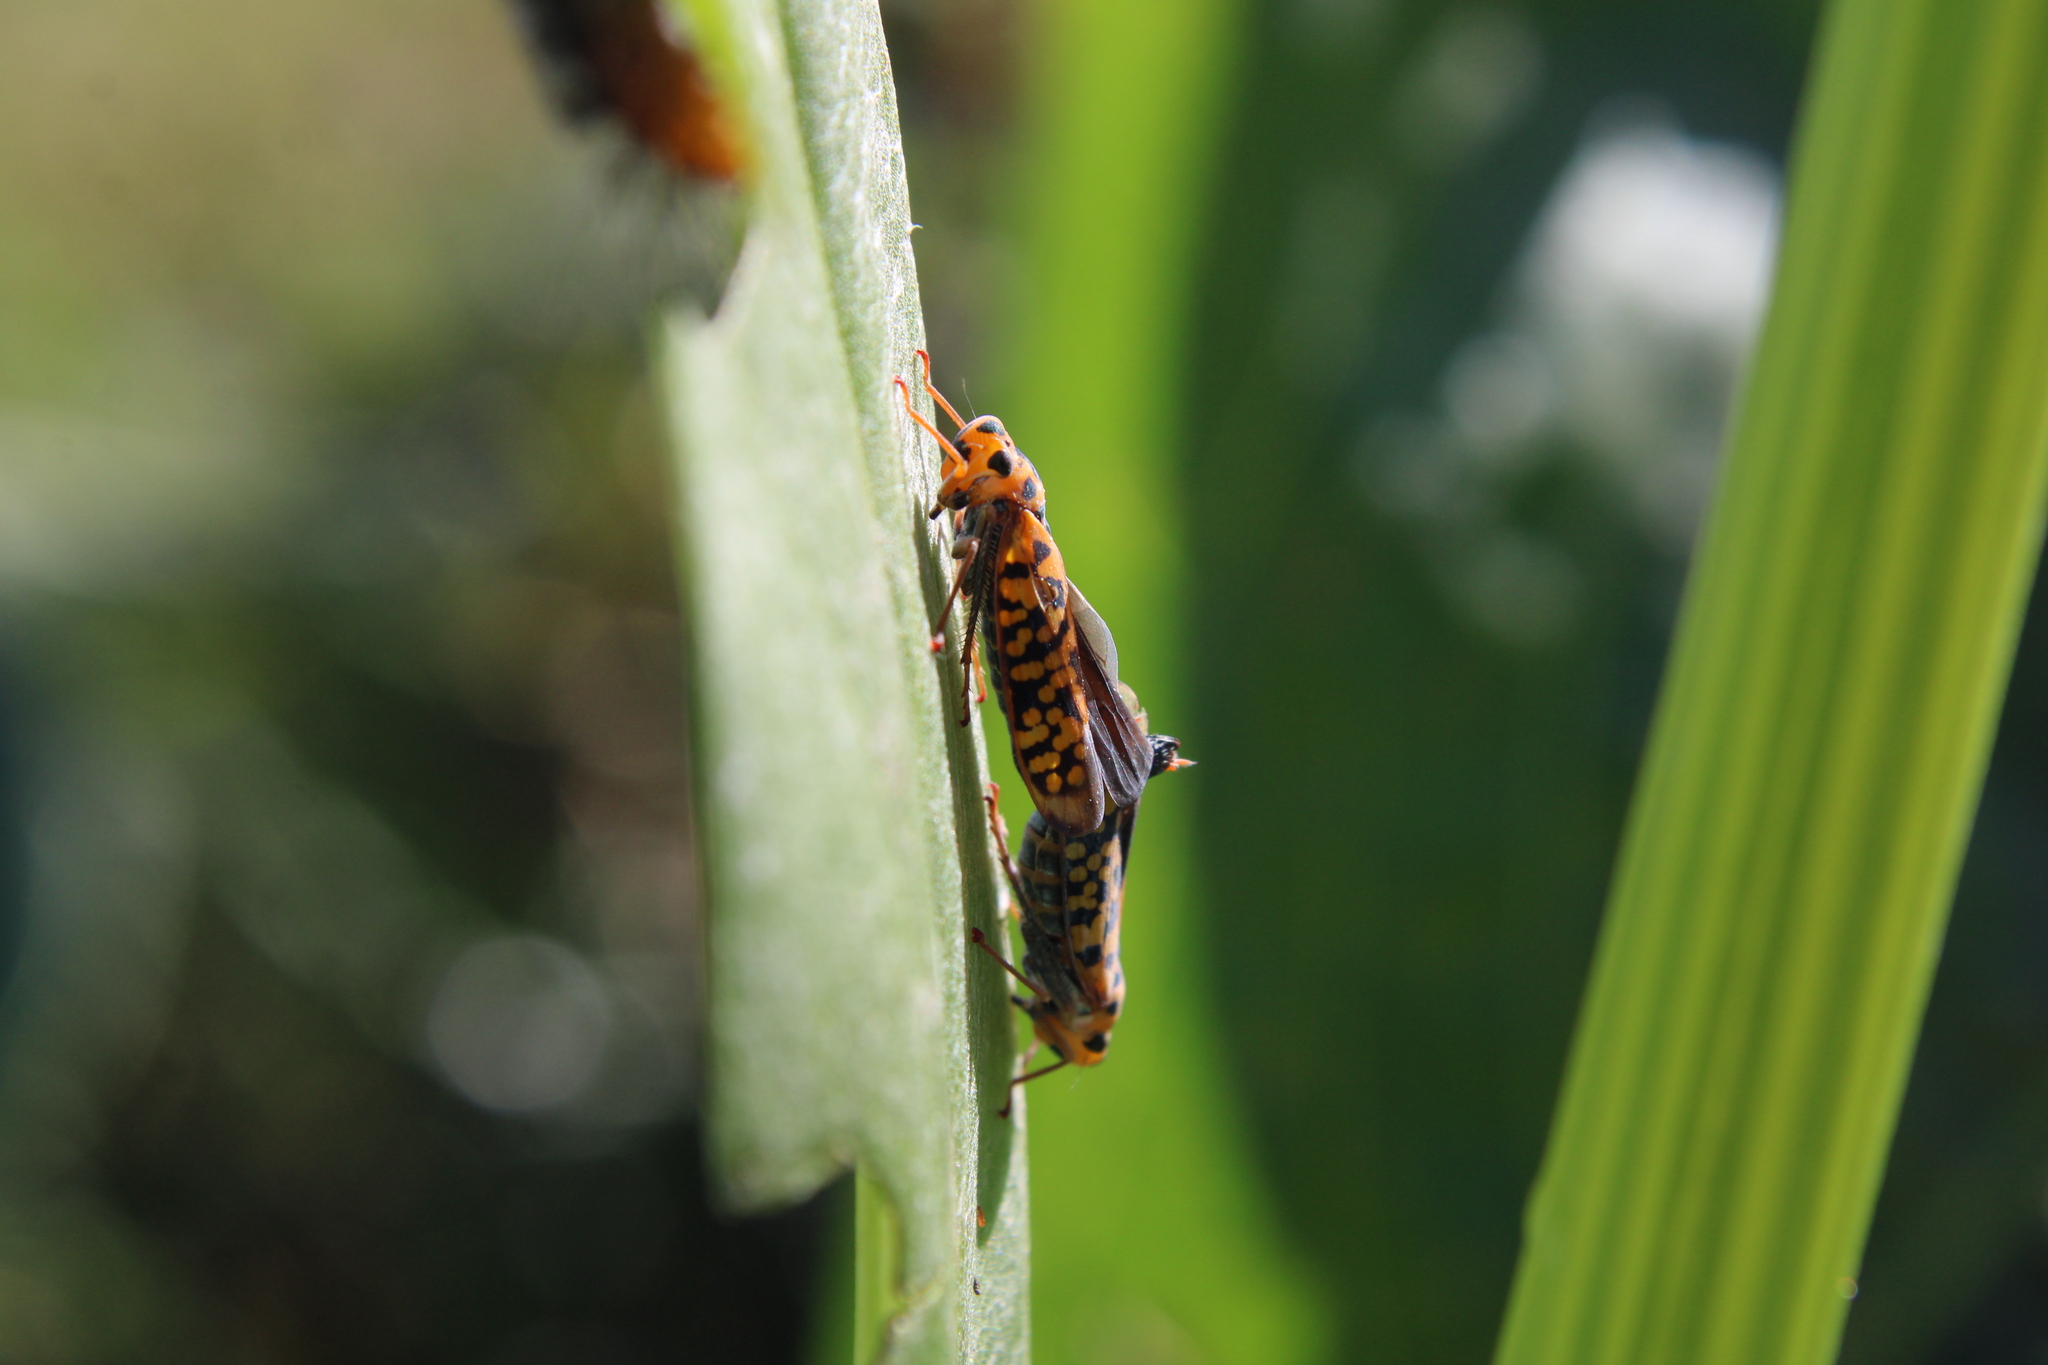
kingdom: Animalia
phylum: Arthropoda
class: Insecta
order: Hemiptera
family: Cicadellidae
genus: Pawiloma
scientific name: Pawiloma victima
